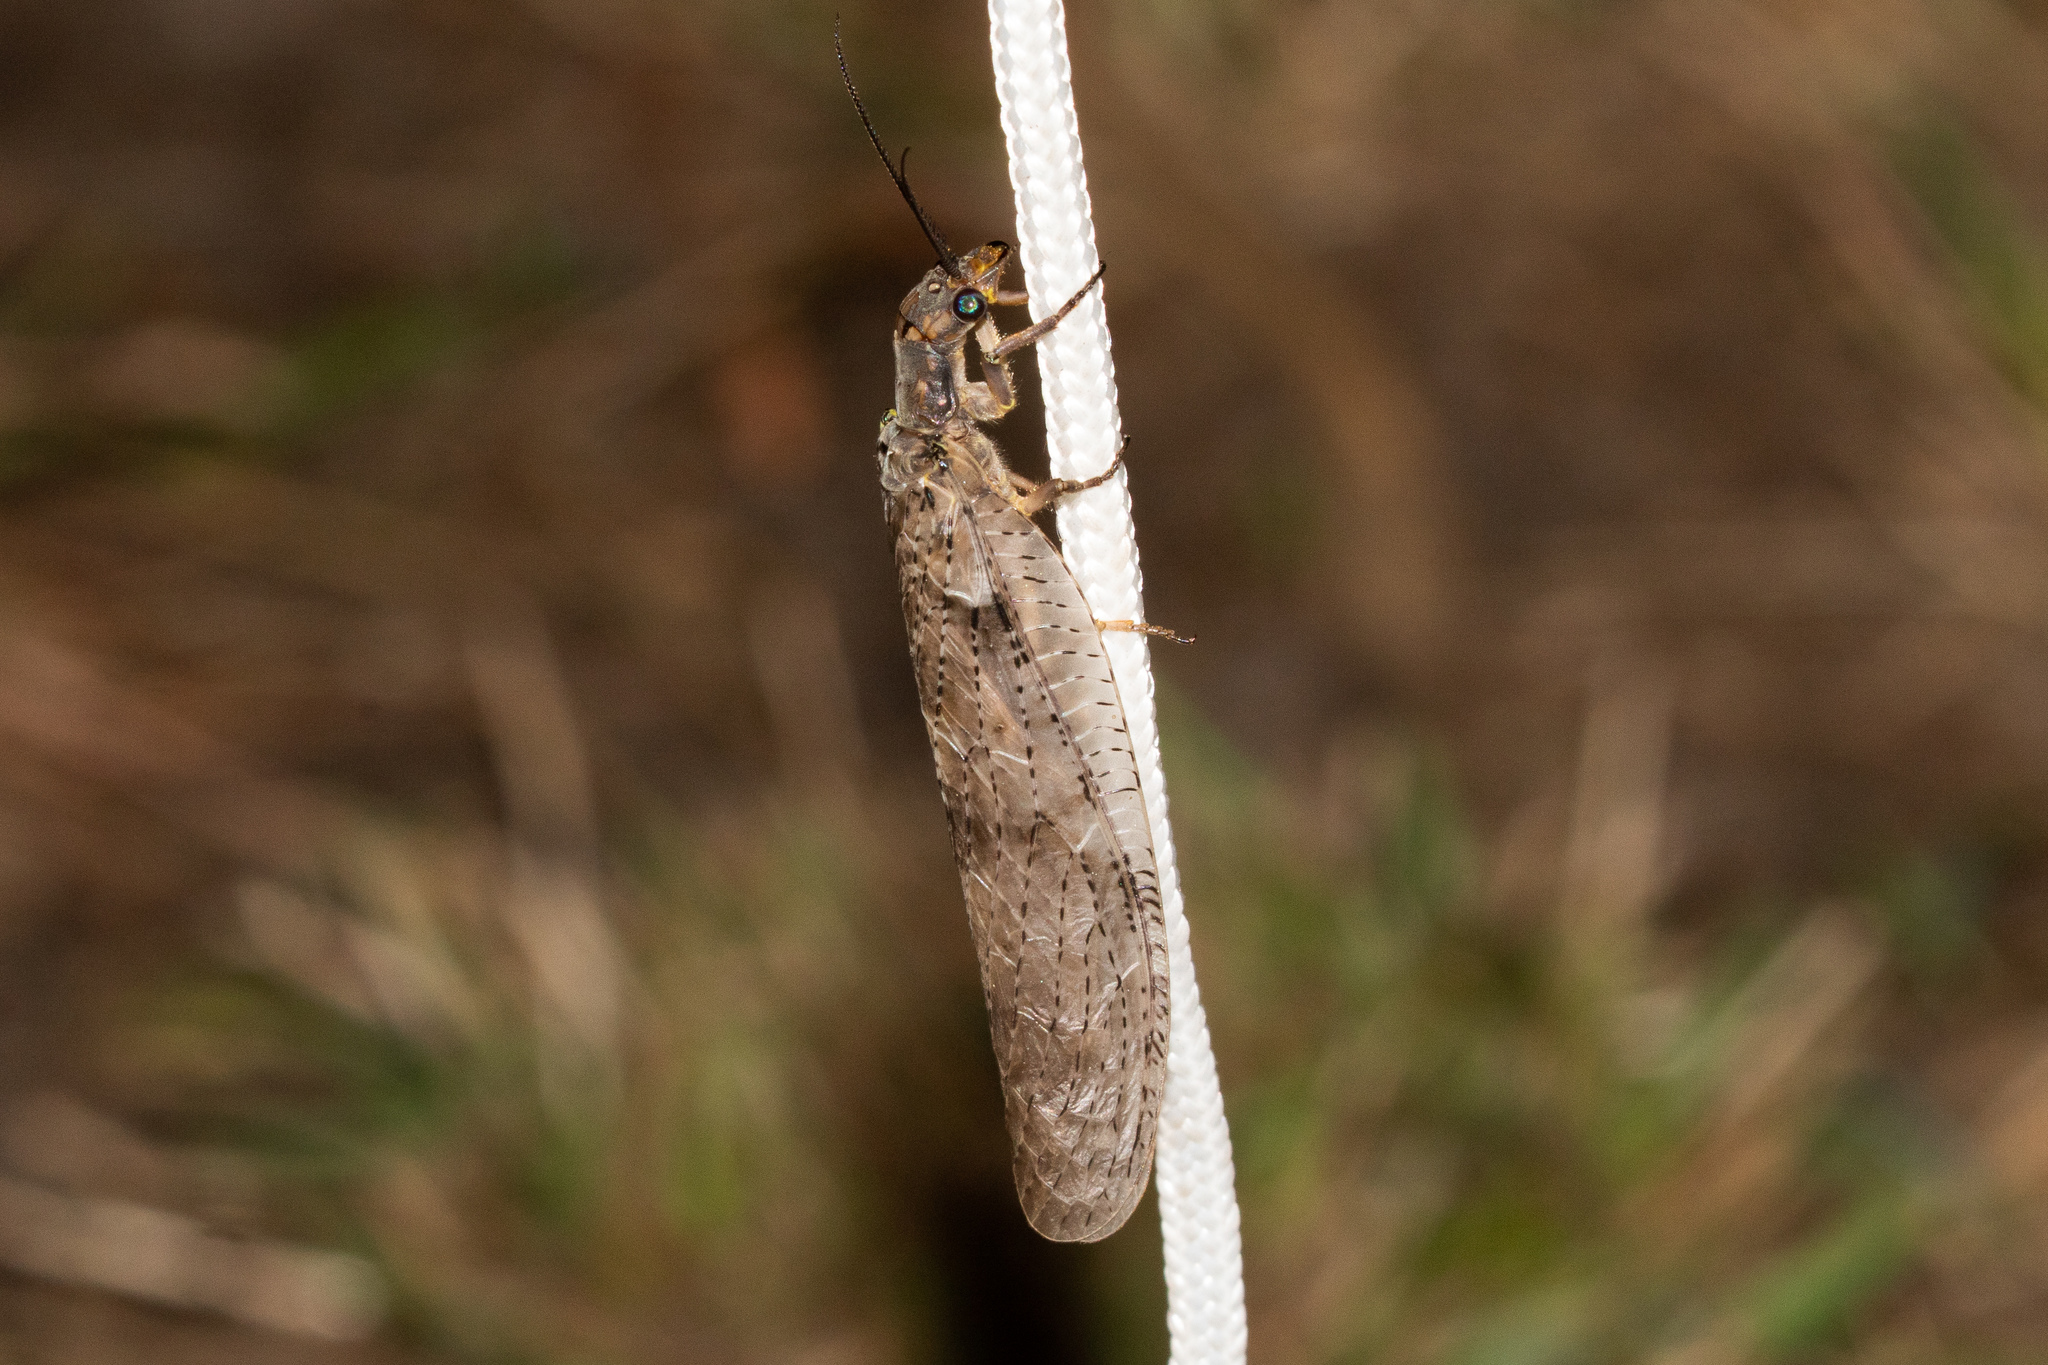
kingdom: Animalia
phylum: Arthropoda
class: Insecta
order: Megaloptera
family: Corydalidae
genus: Chauliodes
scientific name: Chauliodes pectinicornis
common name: Summer fishfly
